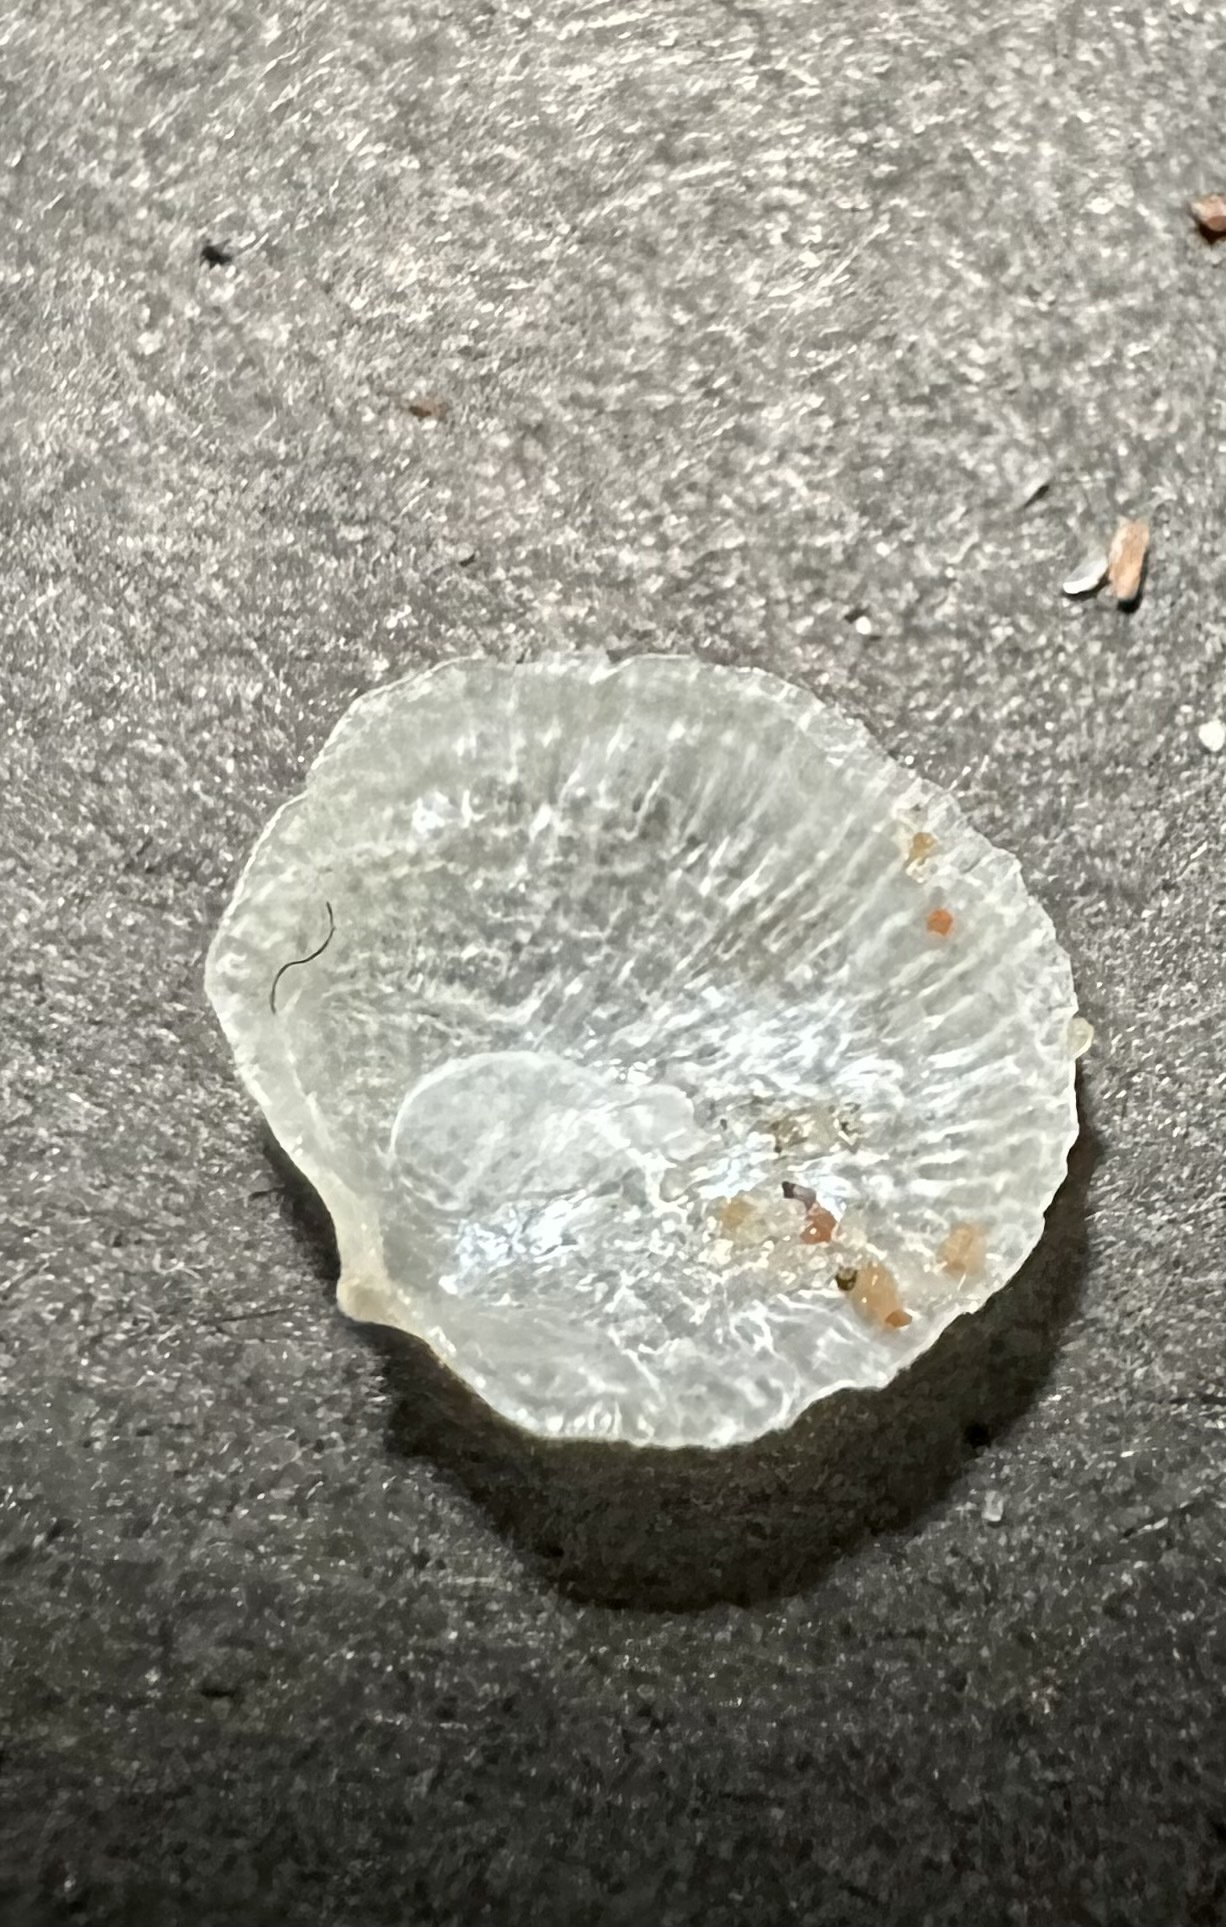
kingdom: Animalia
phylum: Mollusca
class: Bivalvia
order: Pectinida
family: Anomiidae
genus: Heteranomia
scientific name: Heteranomia squamula
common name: Prickly jingle
